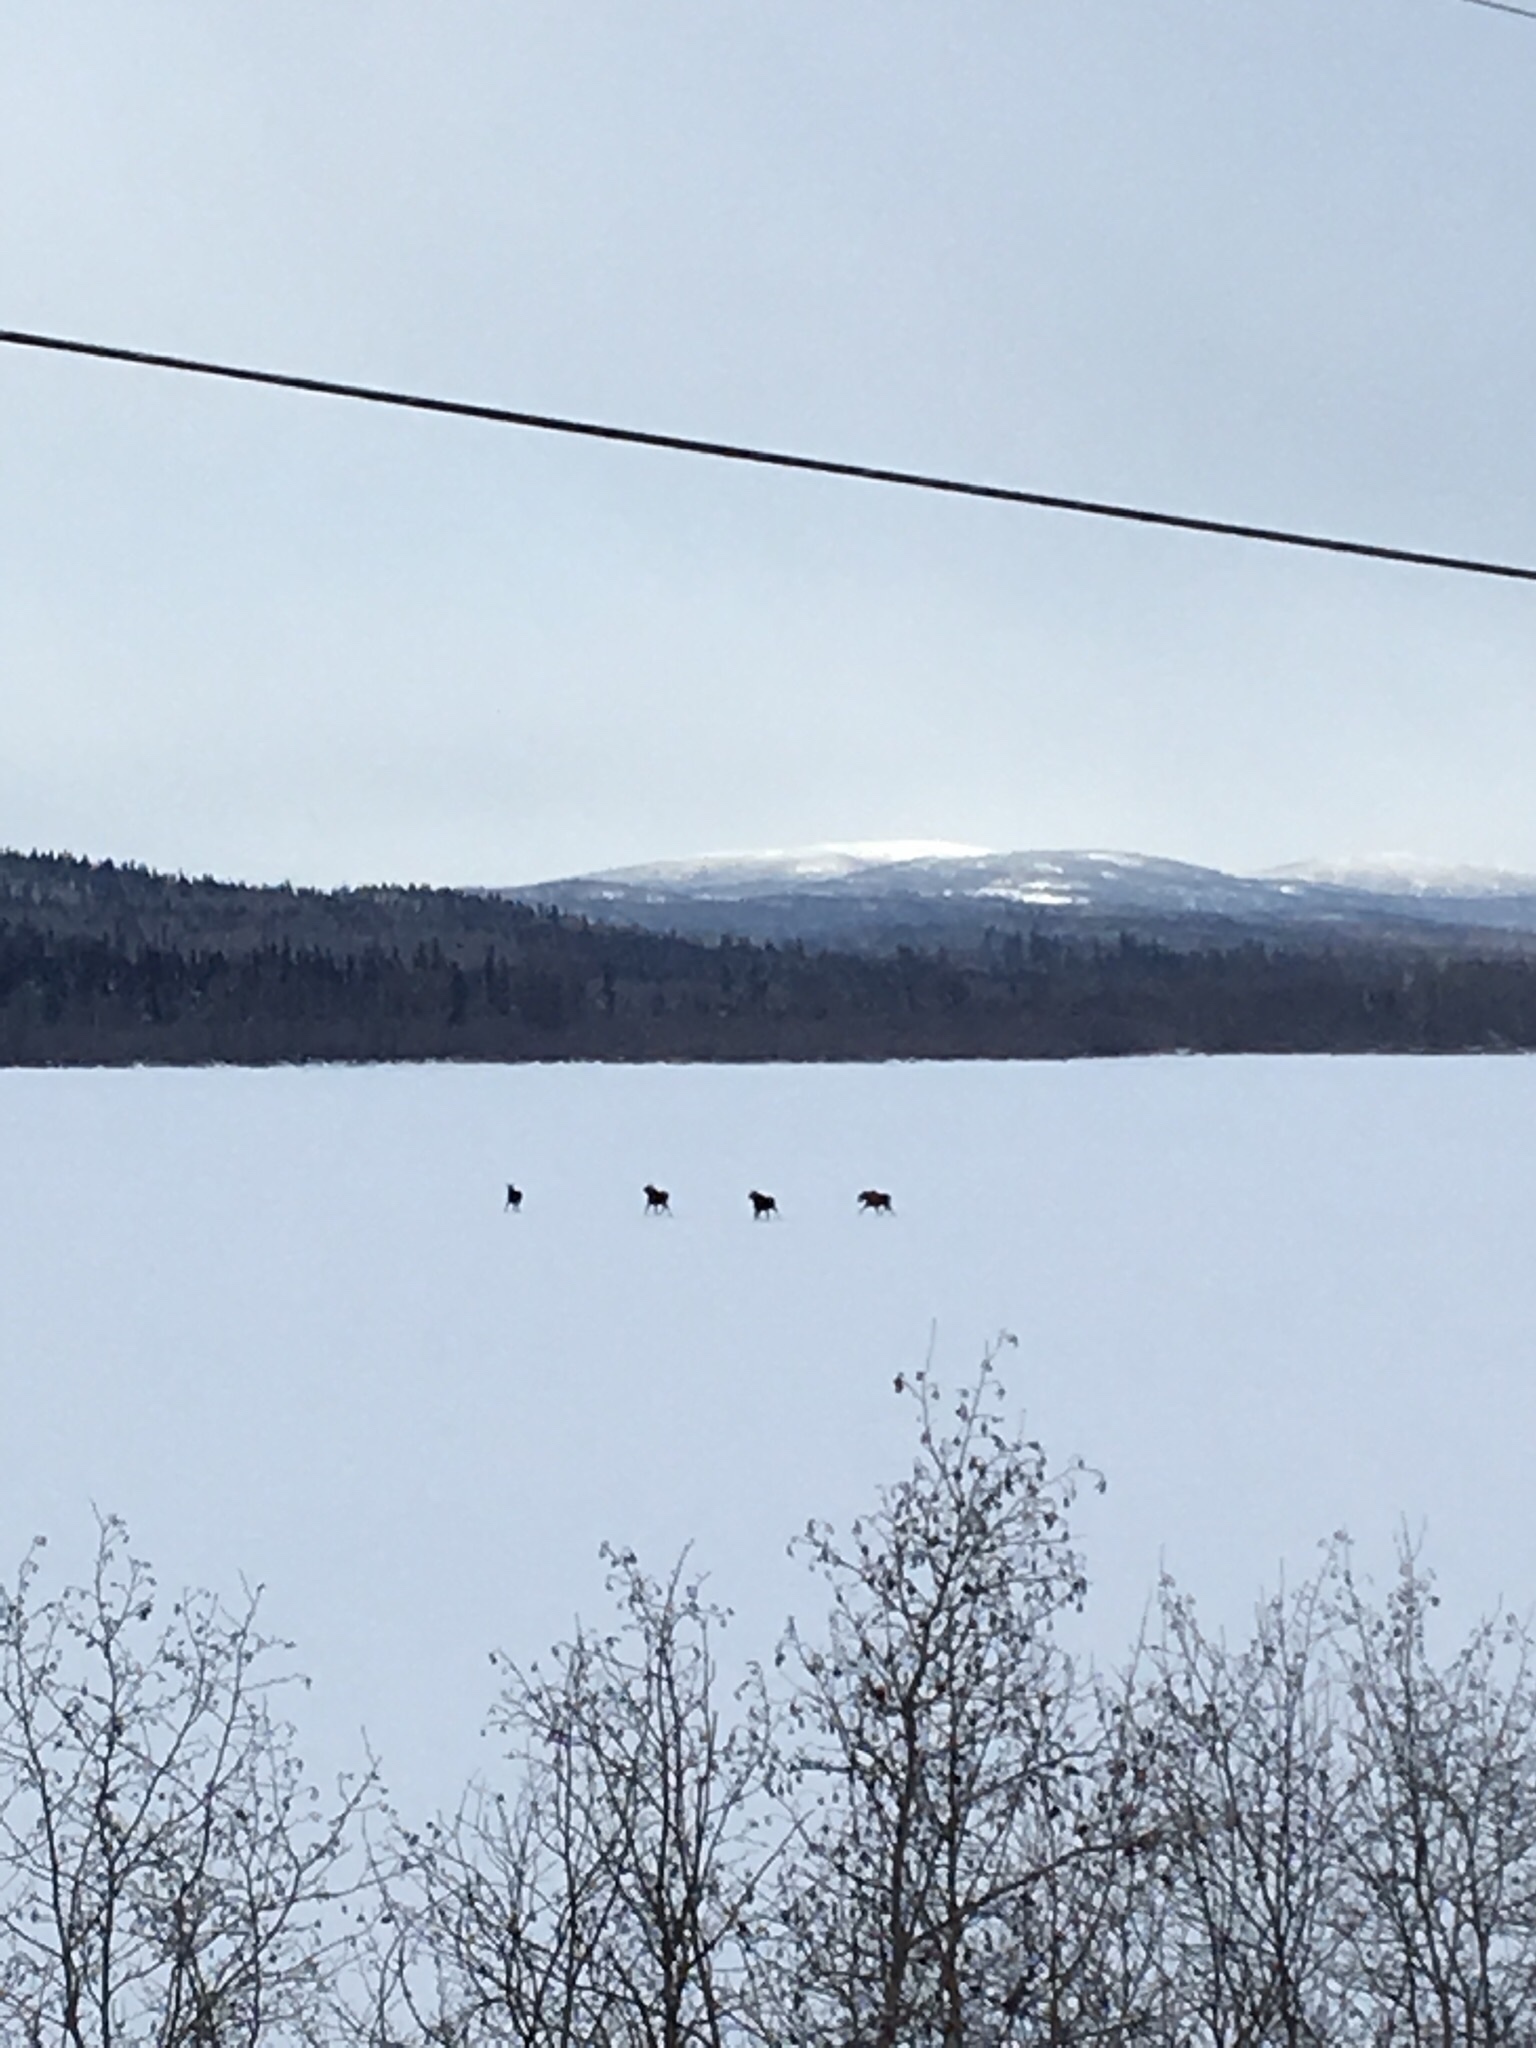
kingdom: Animalia
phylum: Chordata
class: Mammalia
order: Artiodactyla
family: Cervidae
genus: Alces
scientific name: Alces alces
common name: Moose
